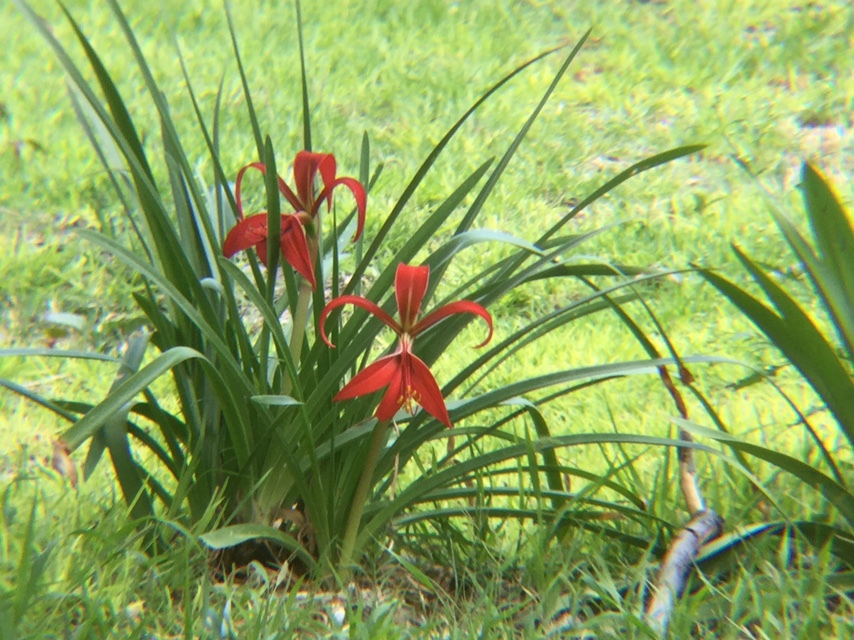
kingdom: Plantae
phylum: Tracheophyta
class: Liliopsida
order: Asparagales
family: Amaryllidaceae
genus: Sprekelia
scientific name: Sprekelia formosissima
